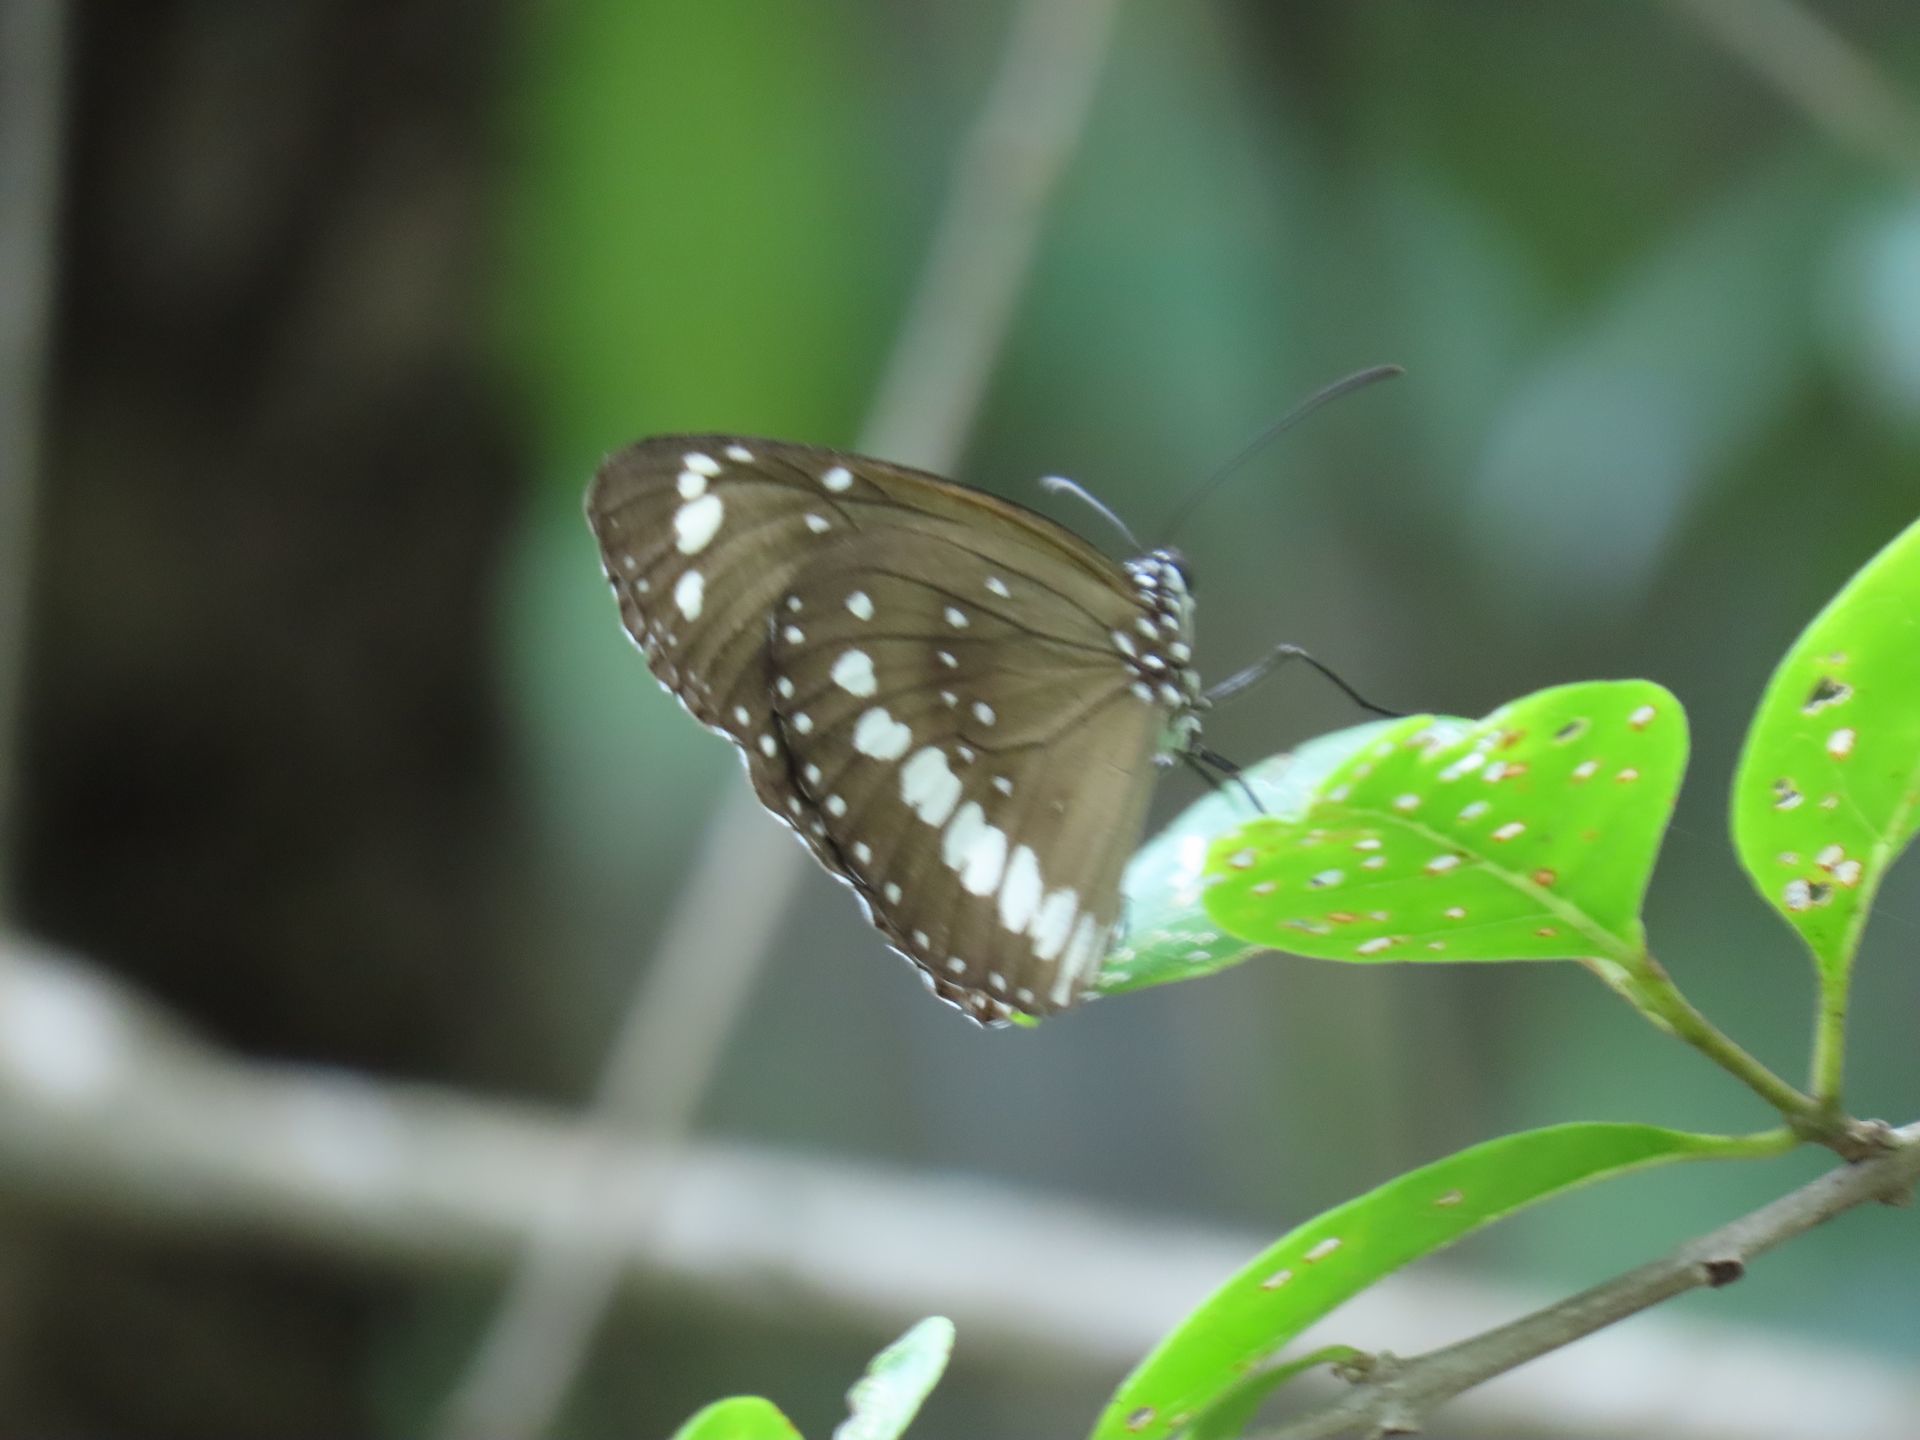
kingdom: Animalia
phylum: Arthropoda
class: Insecta
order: Lepidoptera
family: Nymphalidae
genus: Euploea
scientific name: Euploea core
